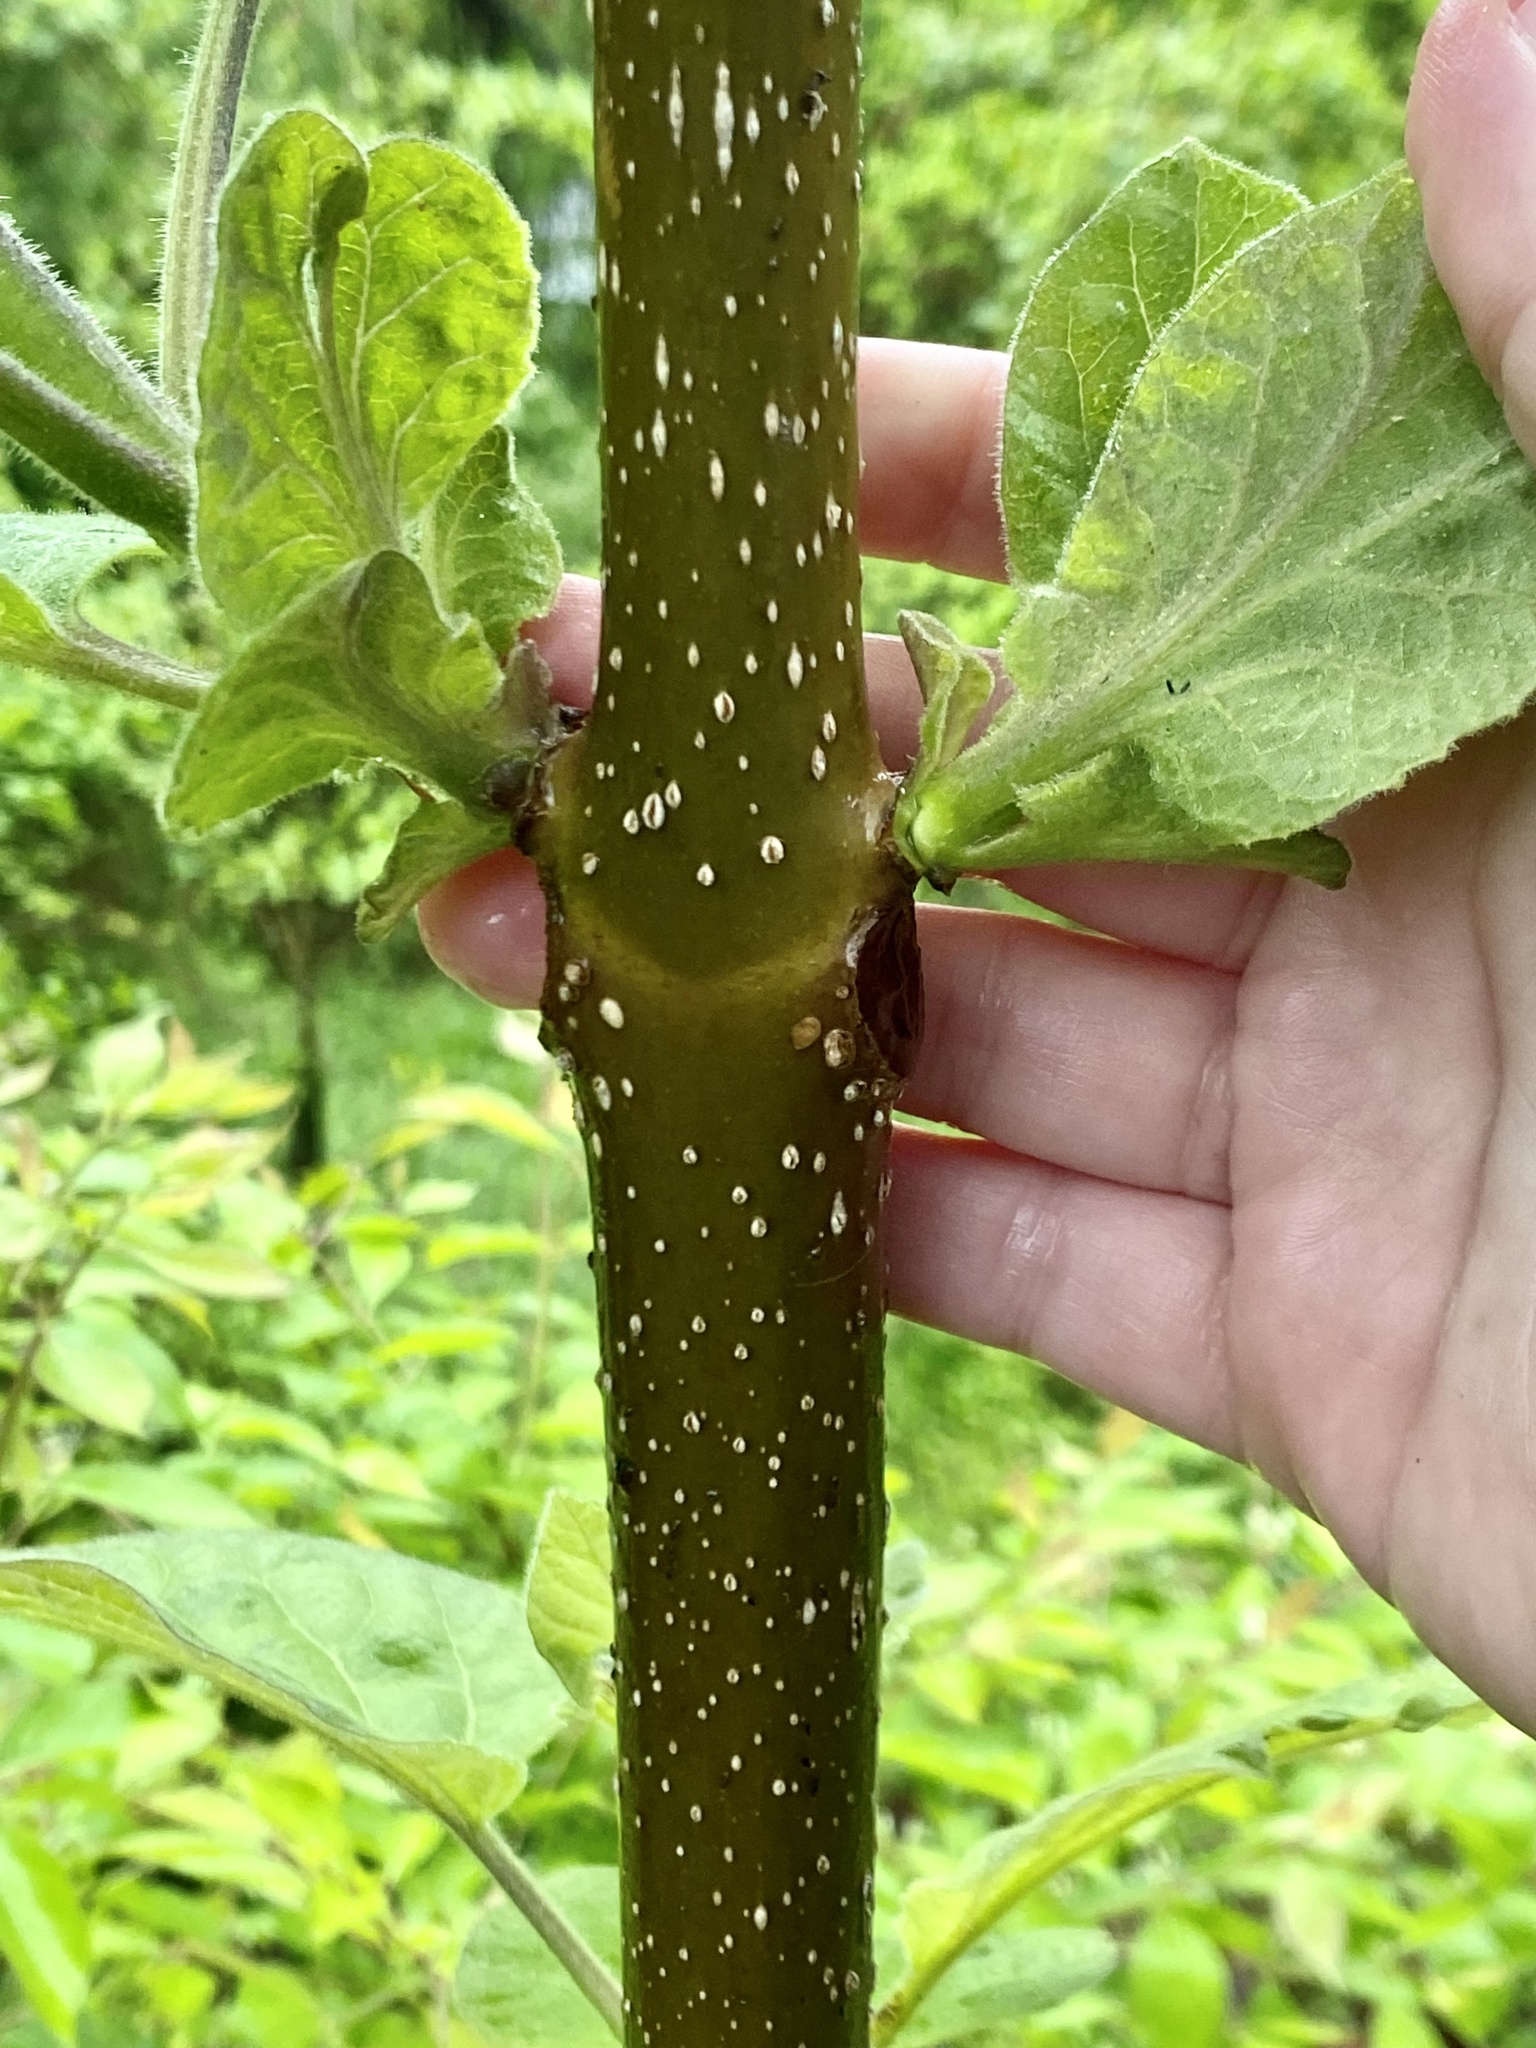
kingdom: Plantae
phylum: Tracheophyta
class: Magnoliopsida
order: Lamiales
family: Paulowniaceae
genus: Paulownia
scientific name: Paulownia tomentosa
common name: Foxglove-tree
